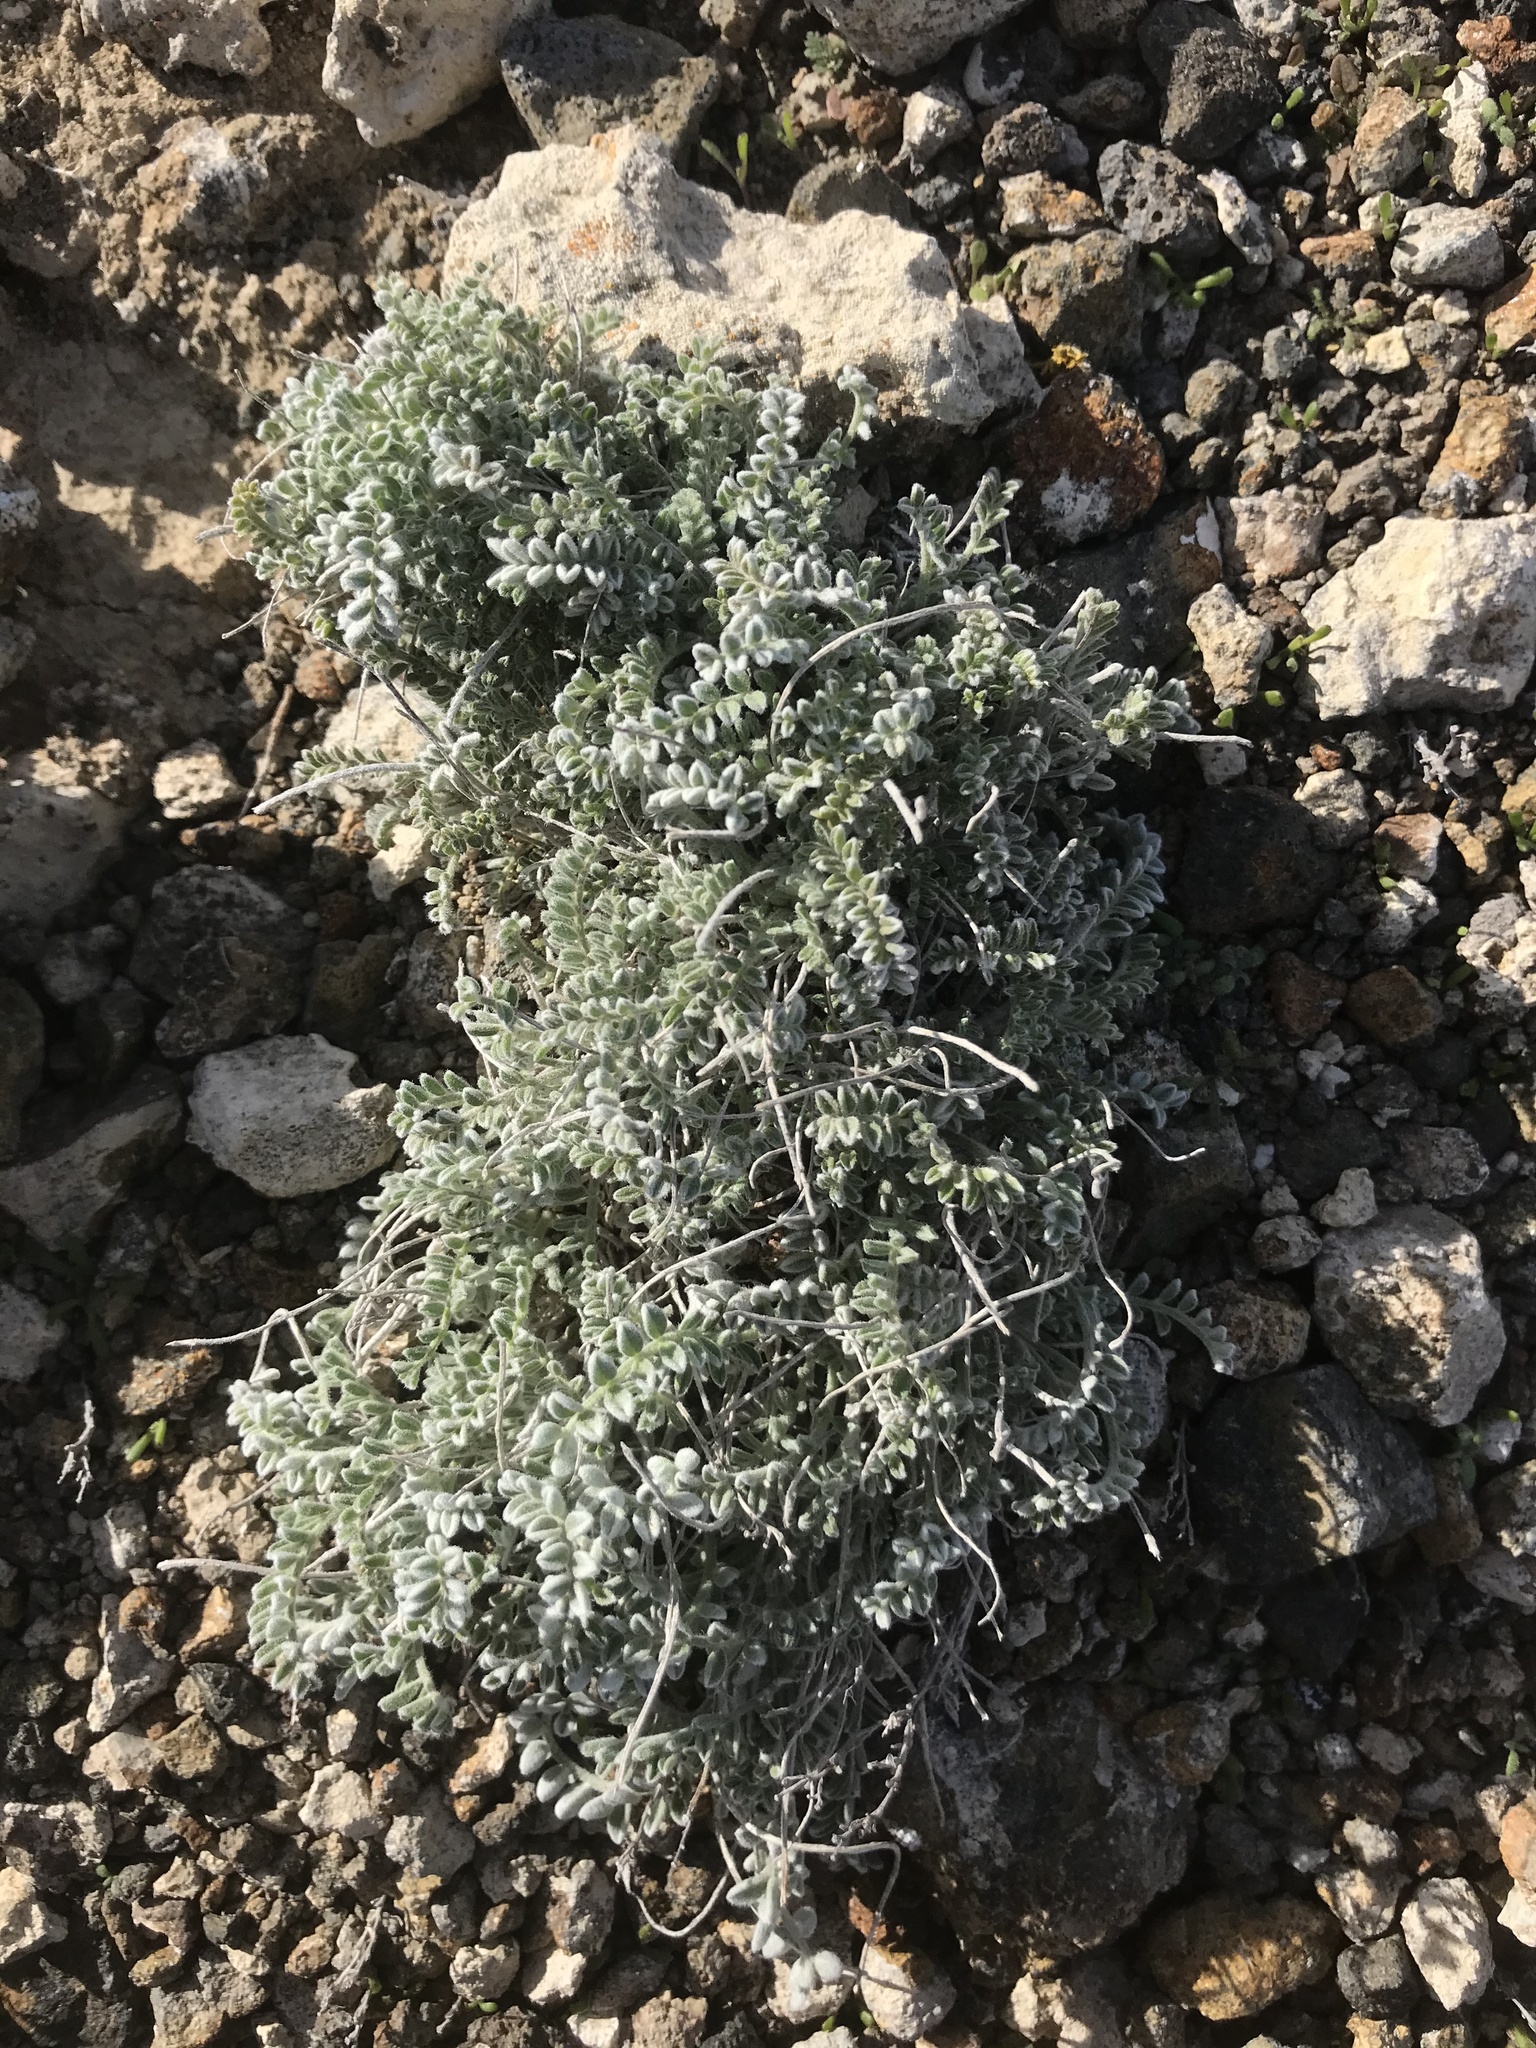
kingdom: Plantae
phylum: Tracheophyta
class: Magnoliopsida
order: Fabales
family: Fabaceae
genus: Astragalus
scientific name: Astragalus traskiae
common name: Trask's milk-vetch
